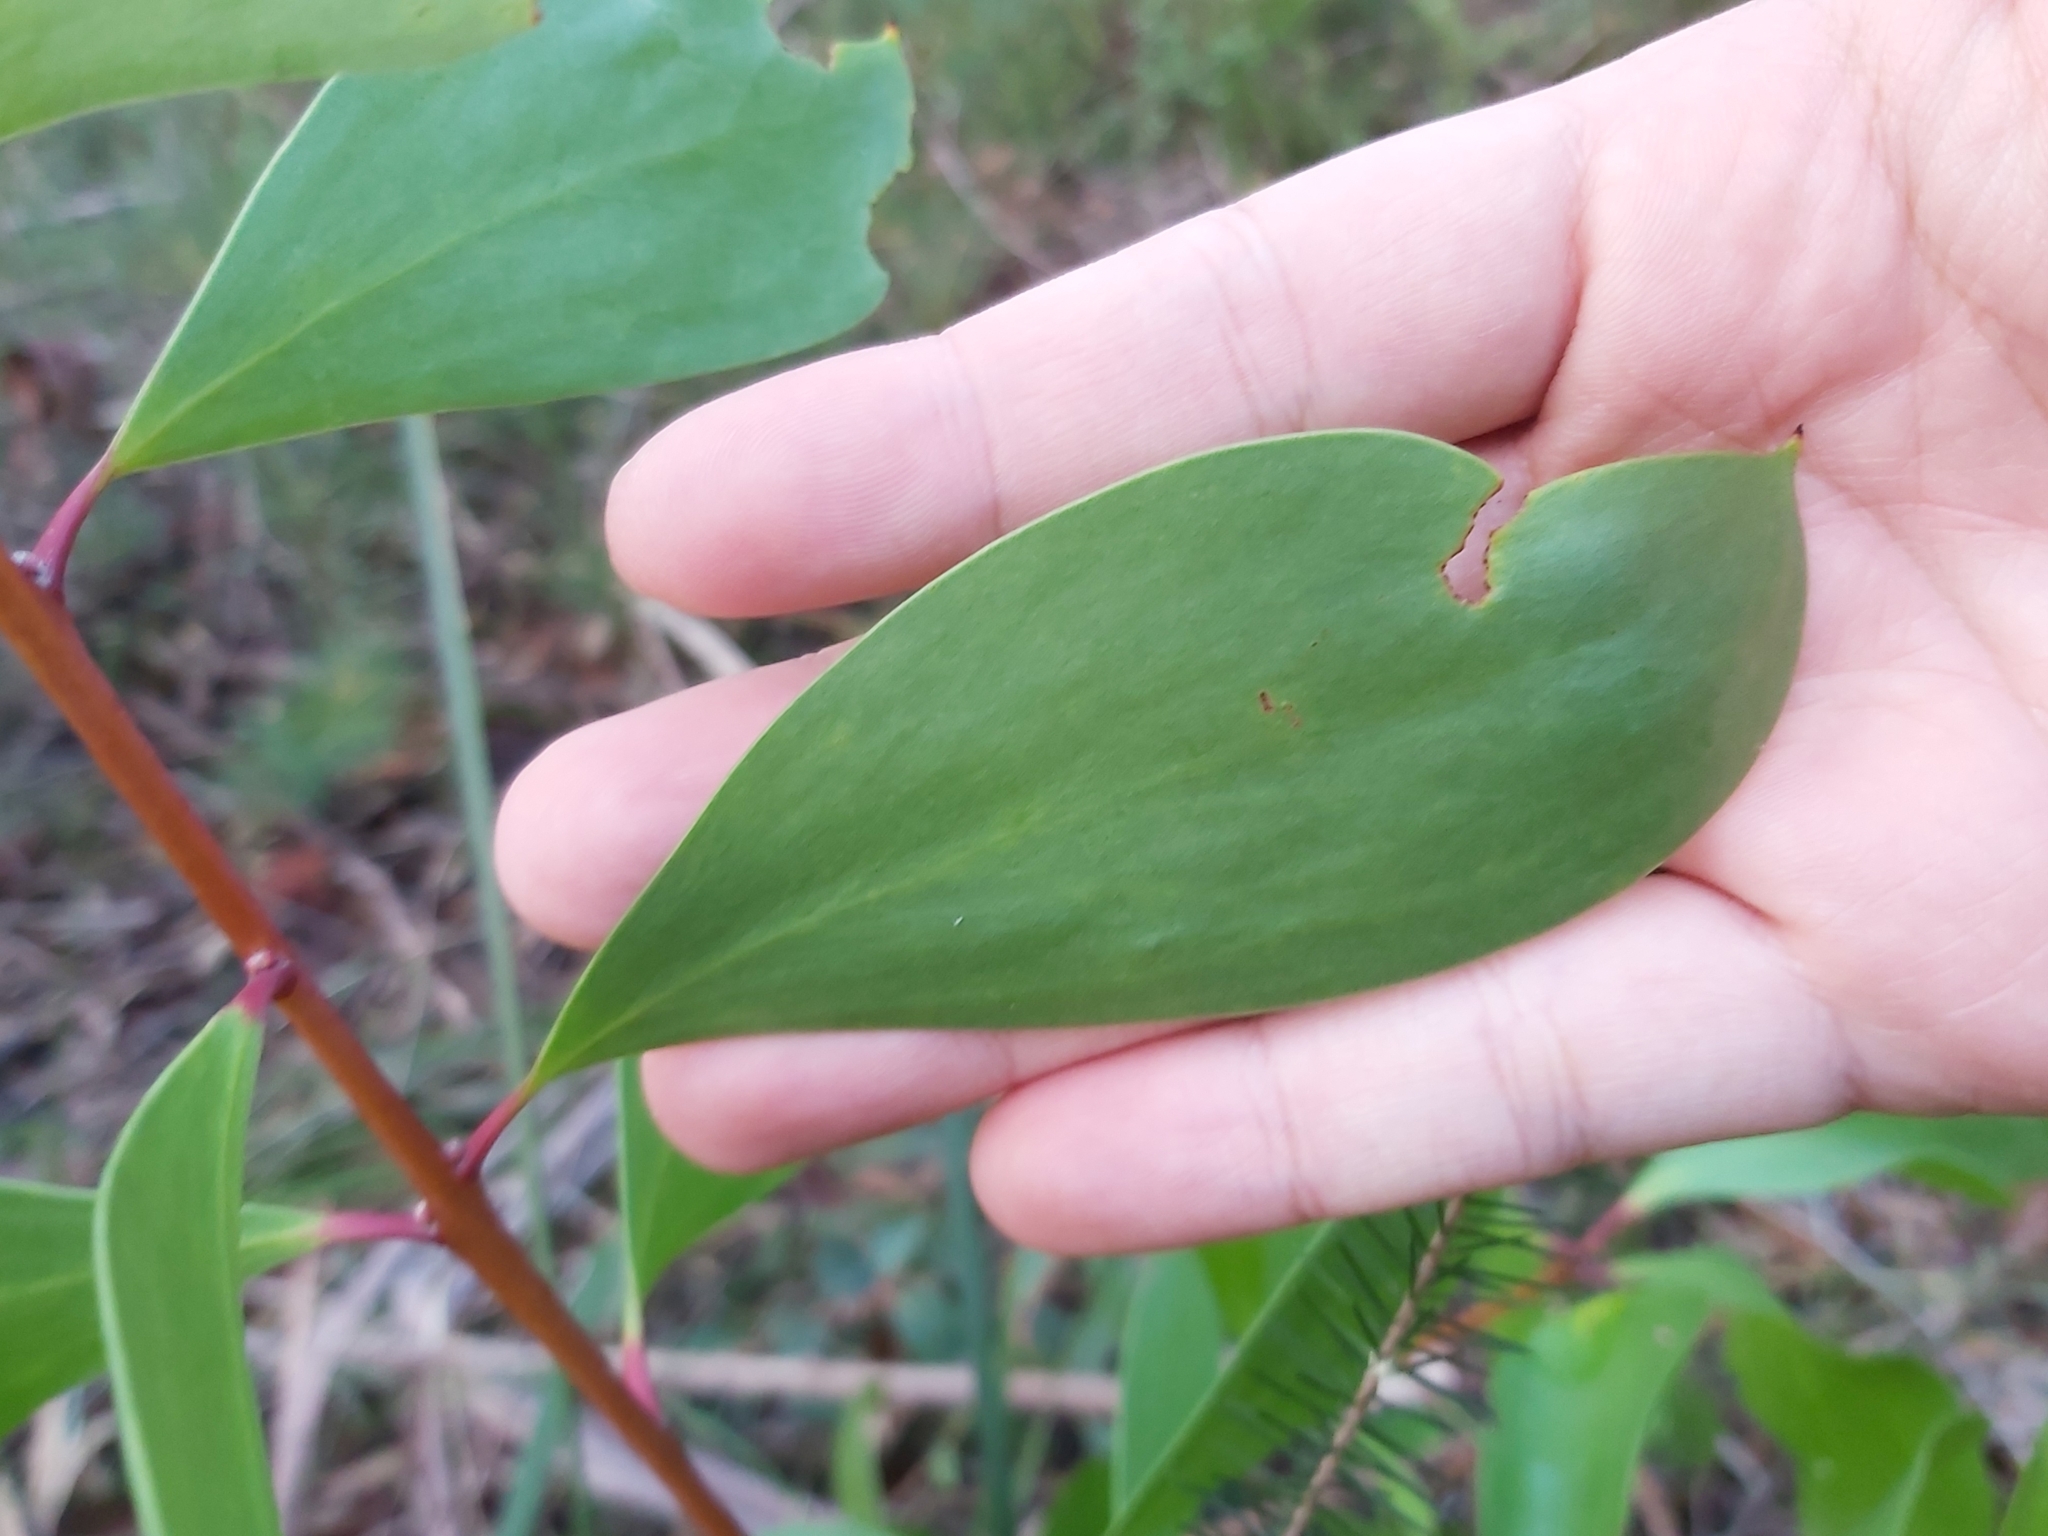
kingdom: Plantae
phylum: Tracheophyta
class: Magnoliopsida
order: Proteales
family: Proteaceae
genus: Persoonia
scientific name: Persoonia levis
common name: Smooth geebung
